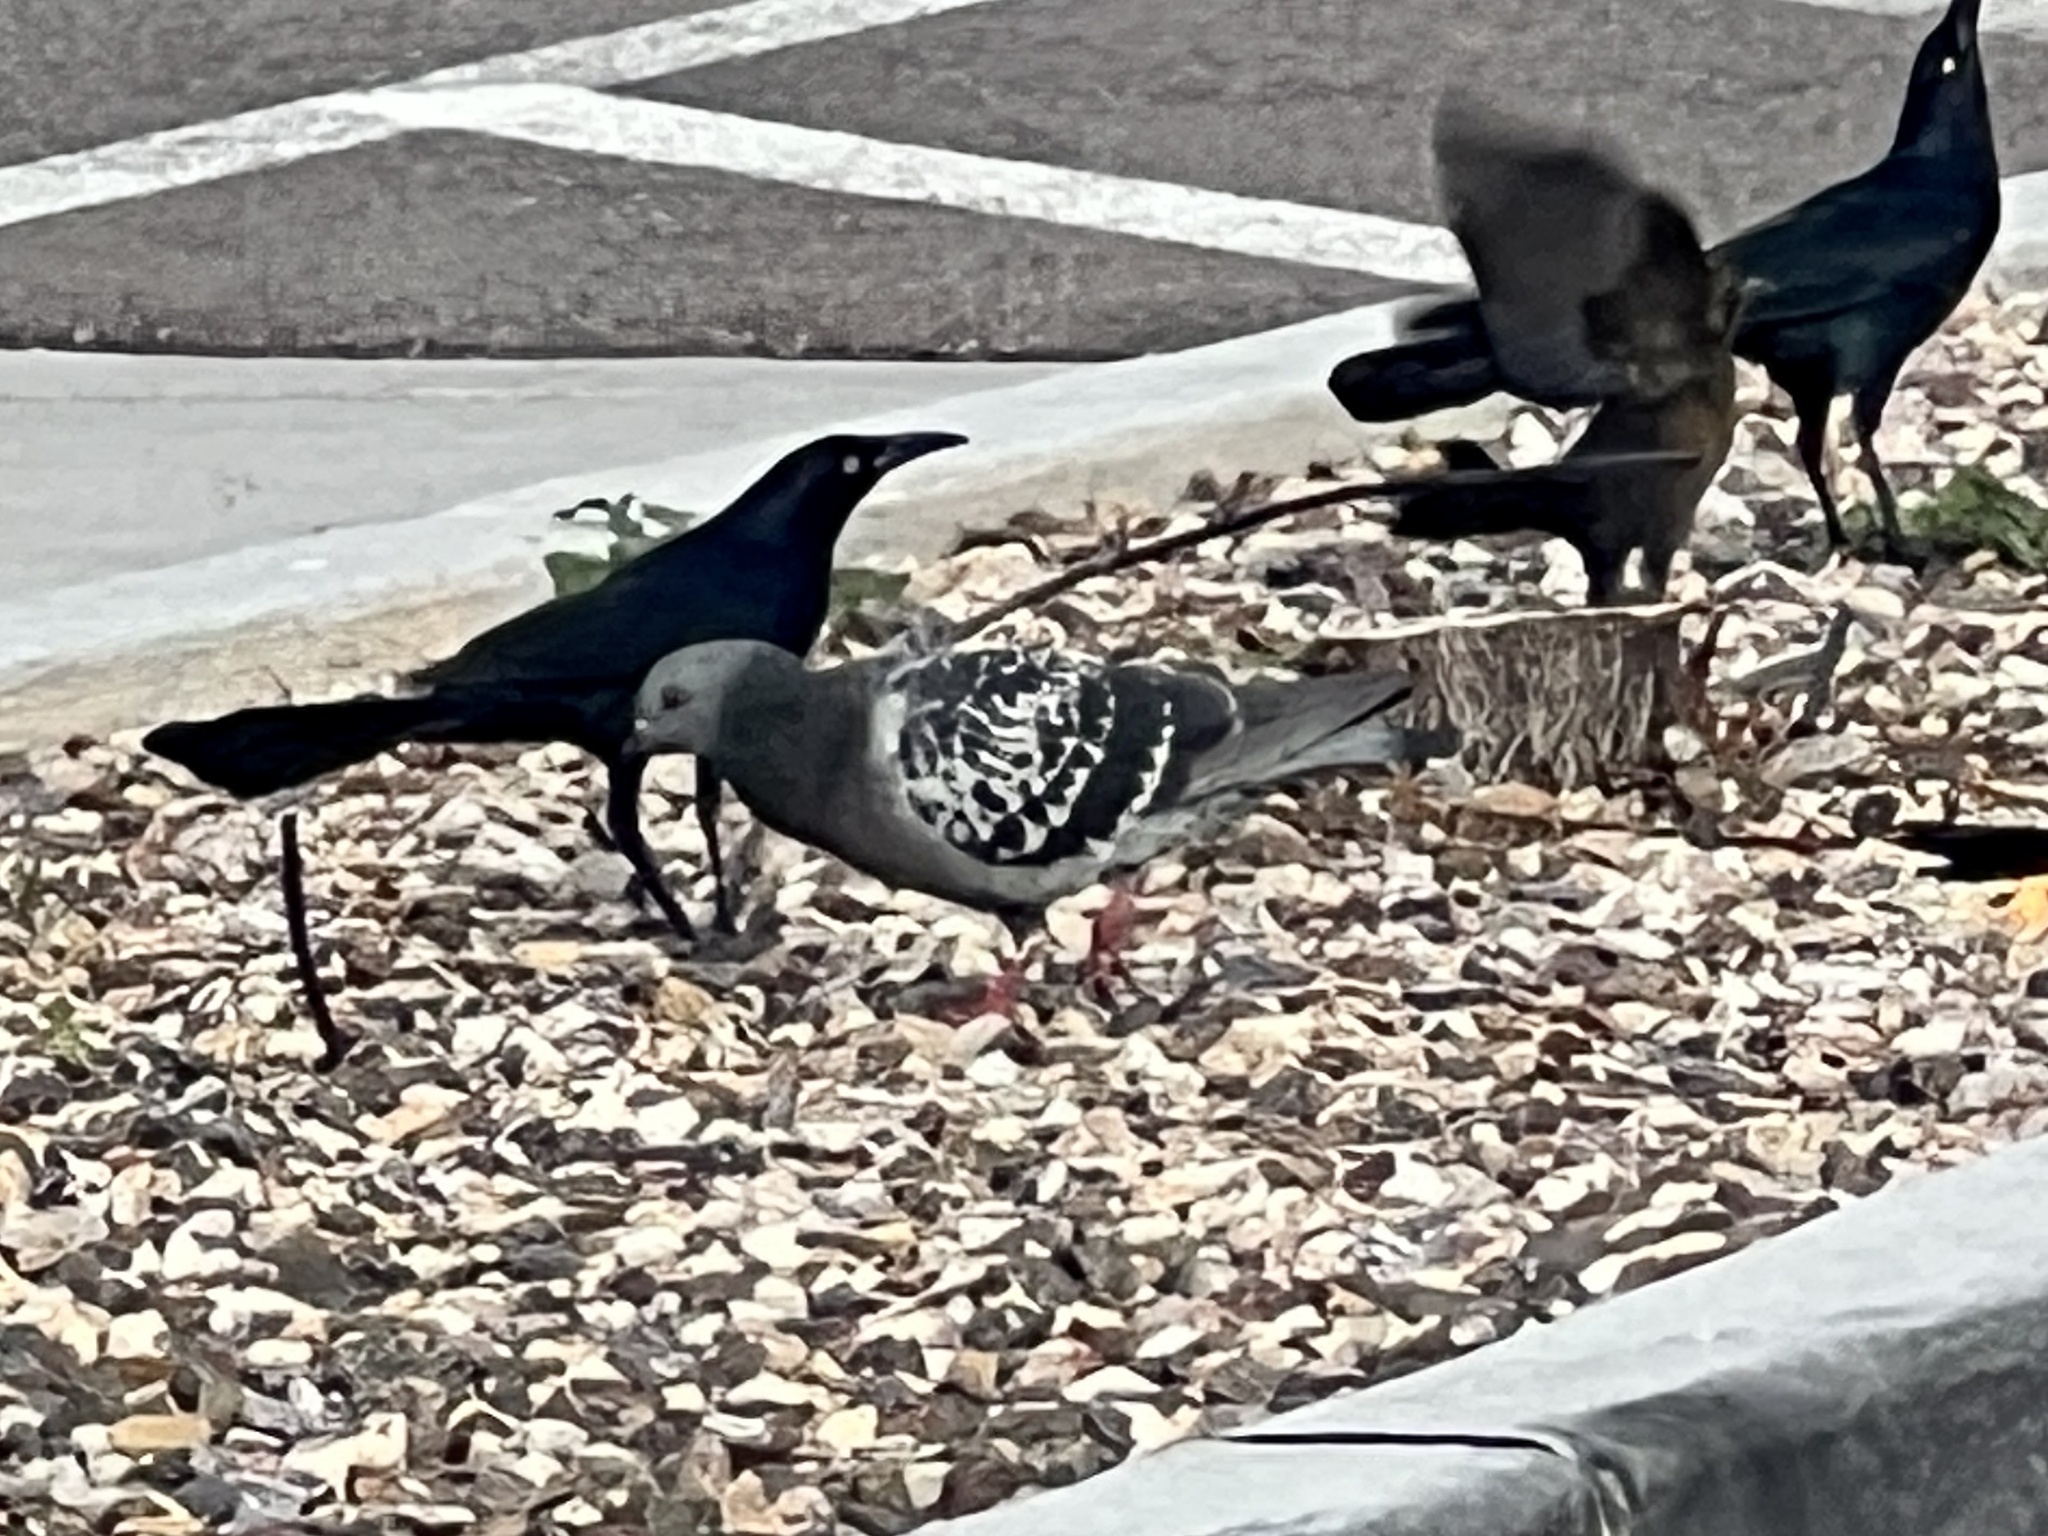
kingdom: Animalia
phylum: Chordata
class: Aves
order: Columbiformes
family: Columbidae
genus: Columba
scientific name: Columba livia
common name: Rock pigeon
